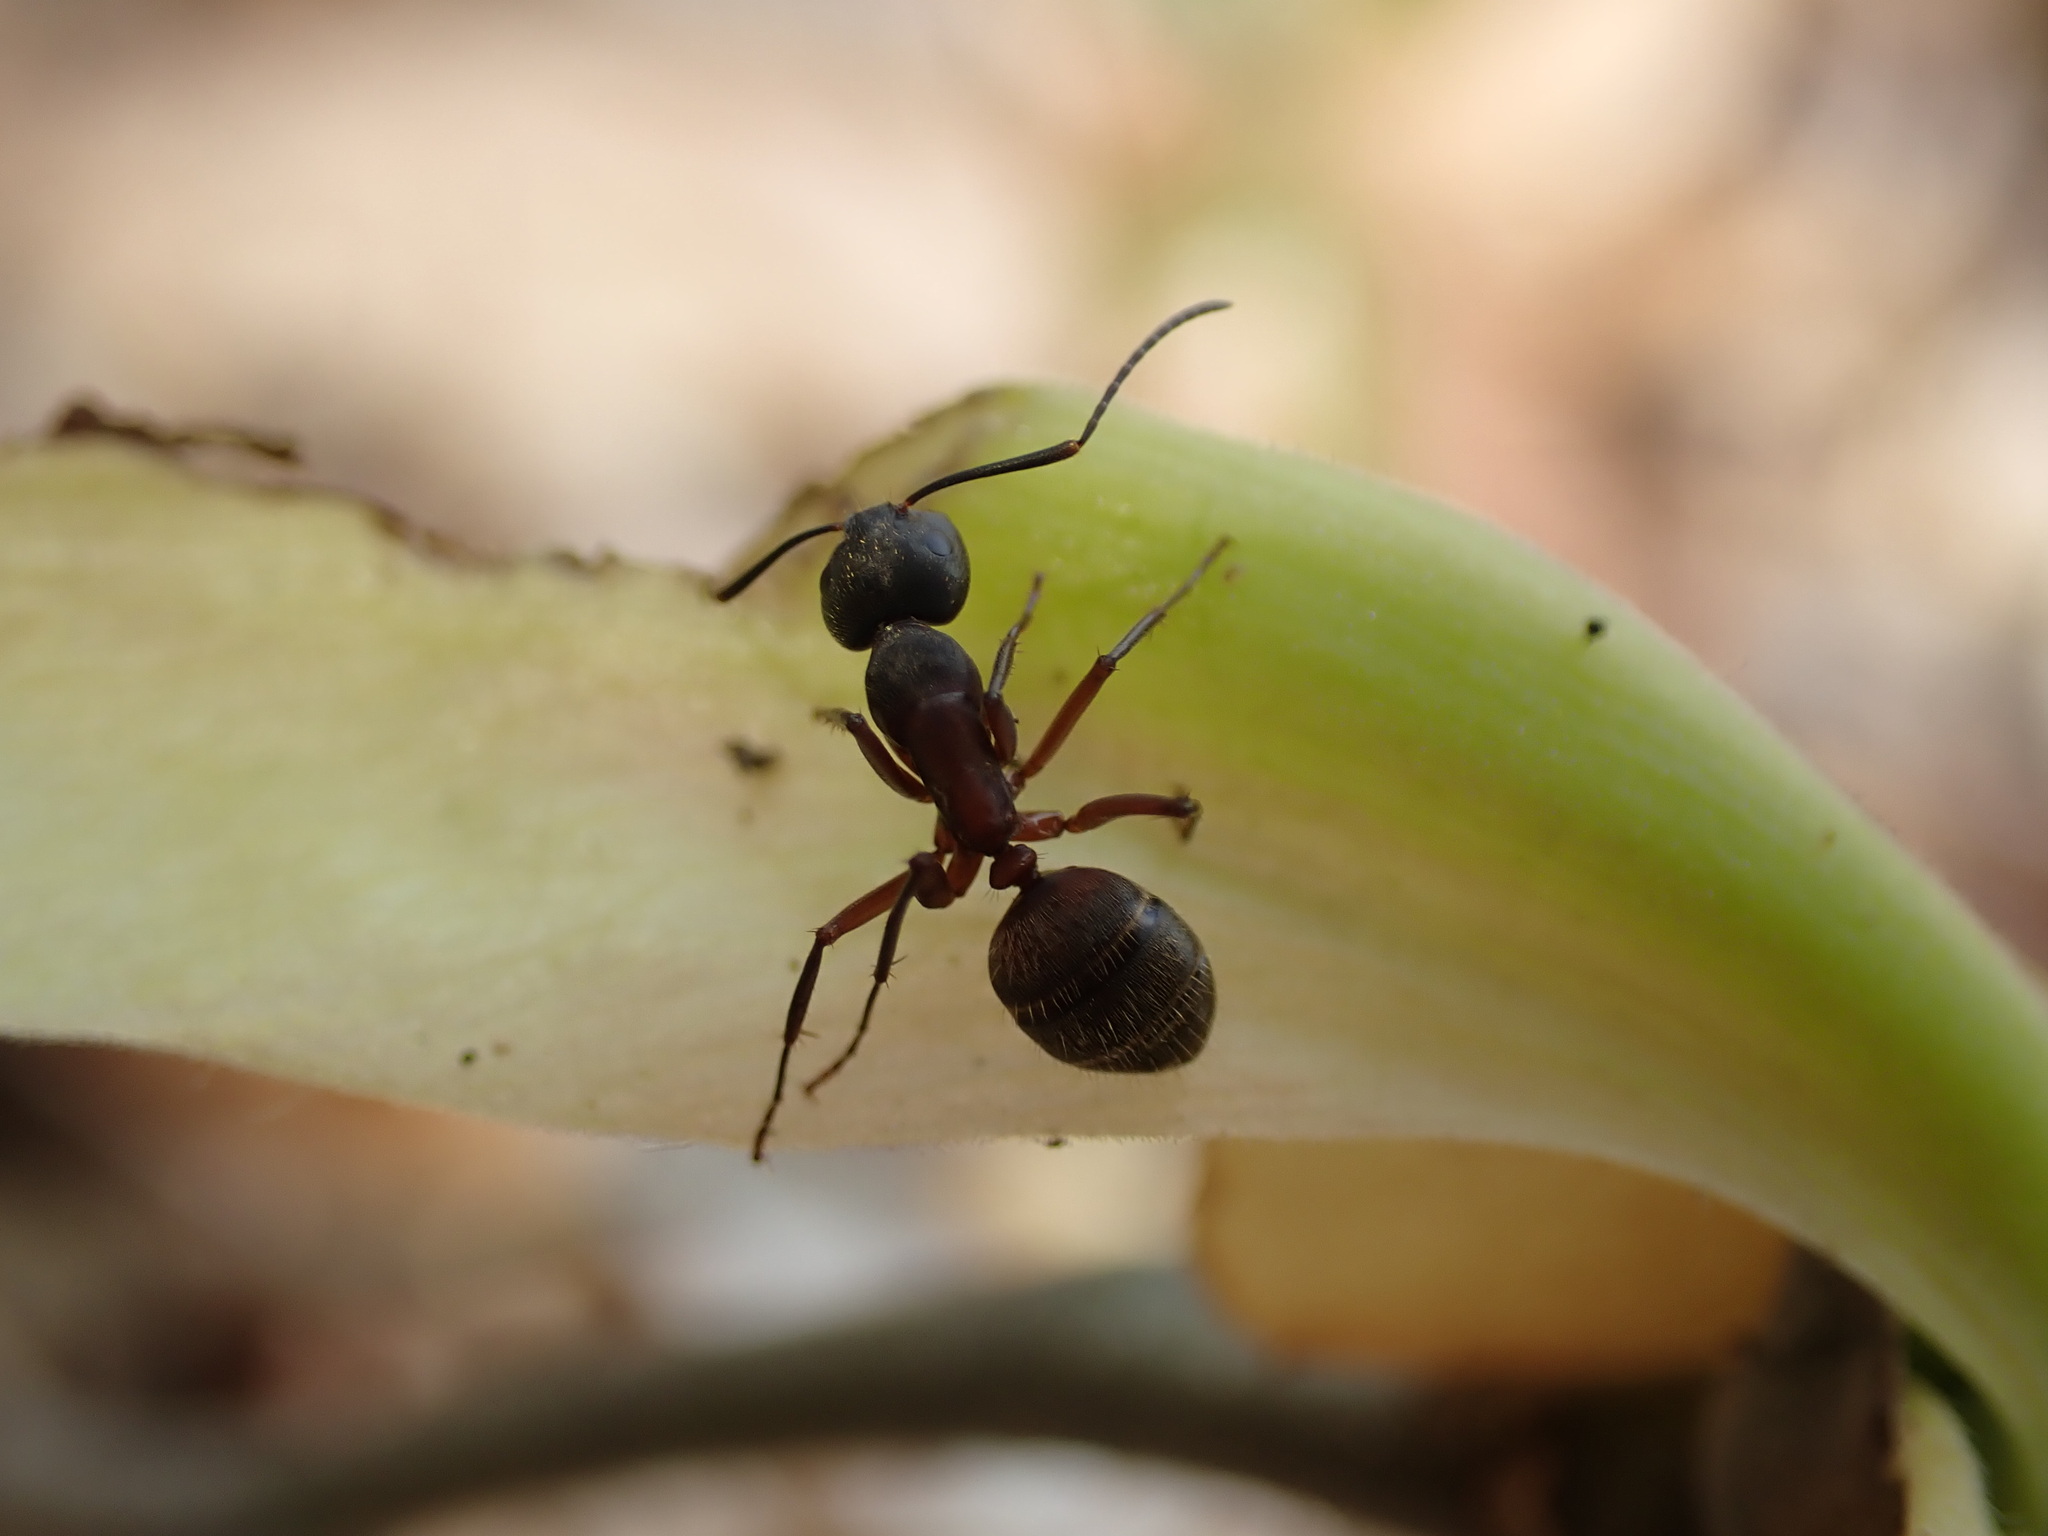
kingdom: Animalia
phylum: Arthropoda
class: Insecta
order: Hymenoptera
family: Formicidae
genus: Camponotus
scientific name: Camponotus chromaiodes
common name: Red carpenter ant
